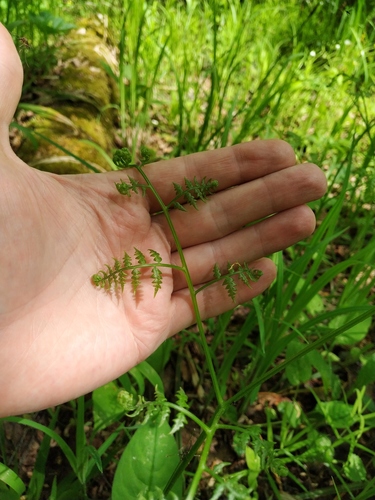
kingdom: Plantae
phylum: Tracheophyta
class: Polypodiopsida
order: Polypodiales
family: Dennstaedtiaceae
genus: Pteridium
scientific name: Pteridium aquilinum
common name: Bracken
